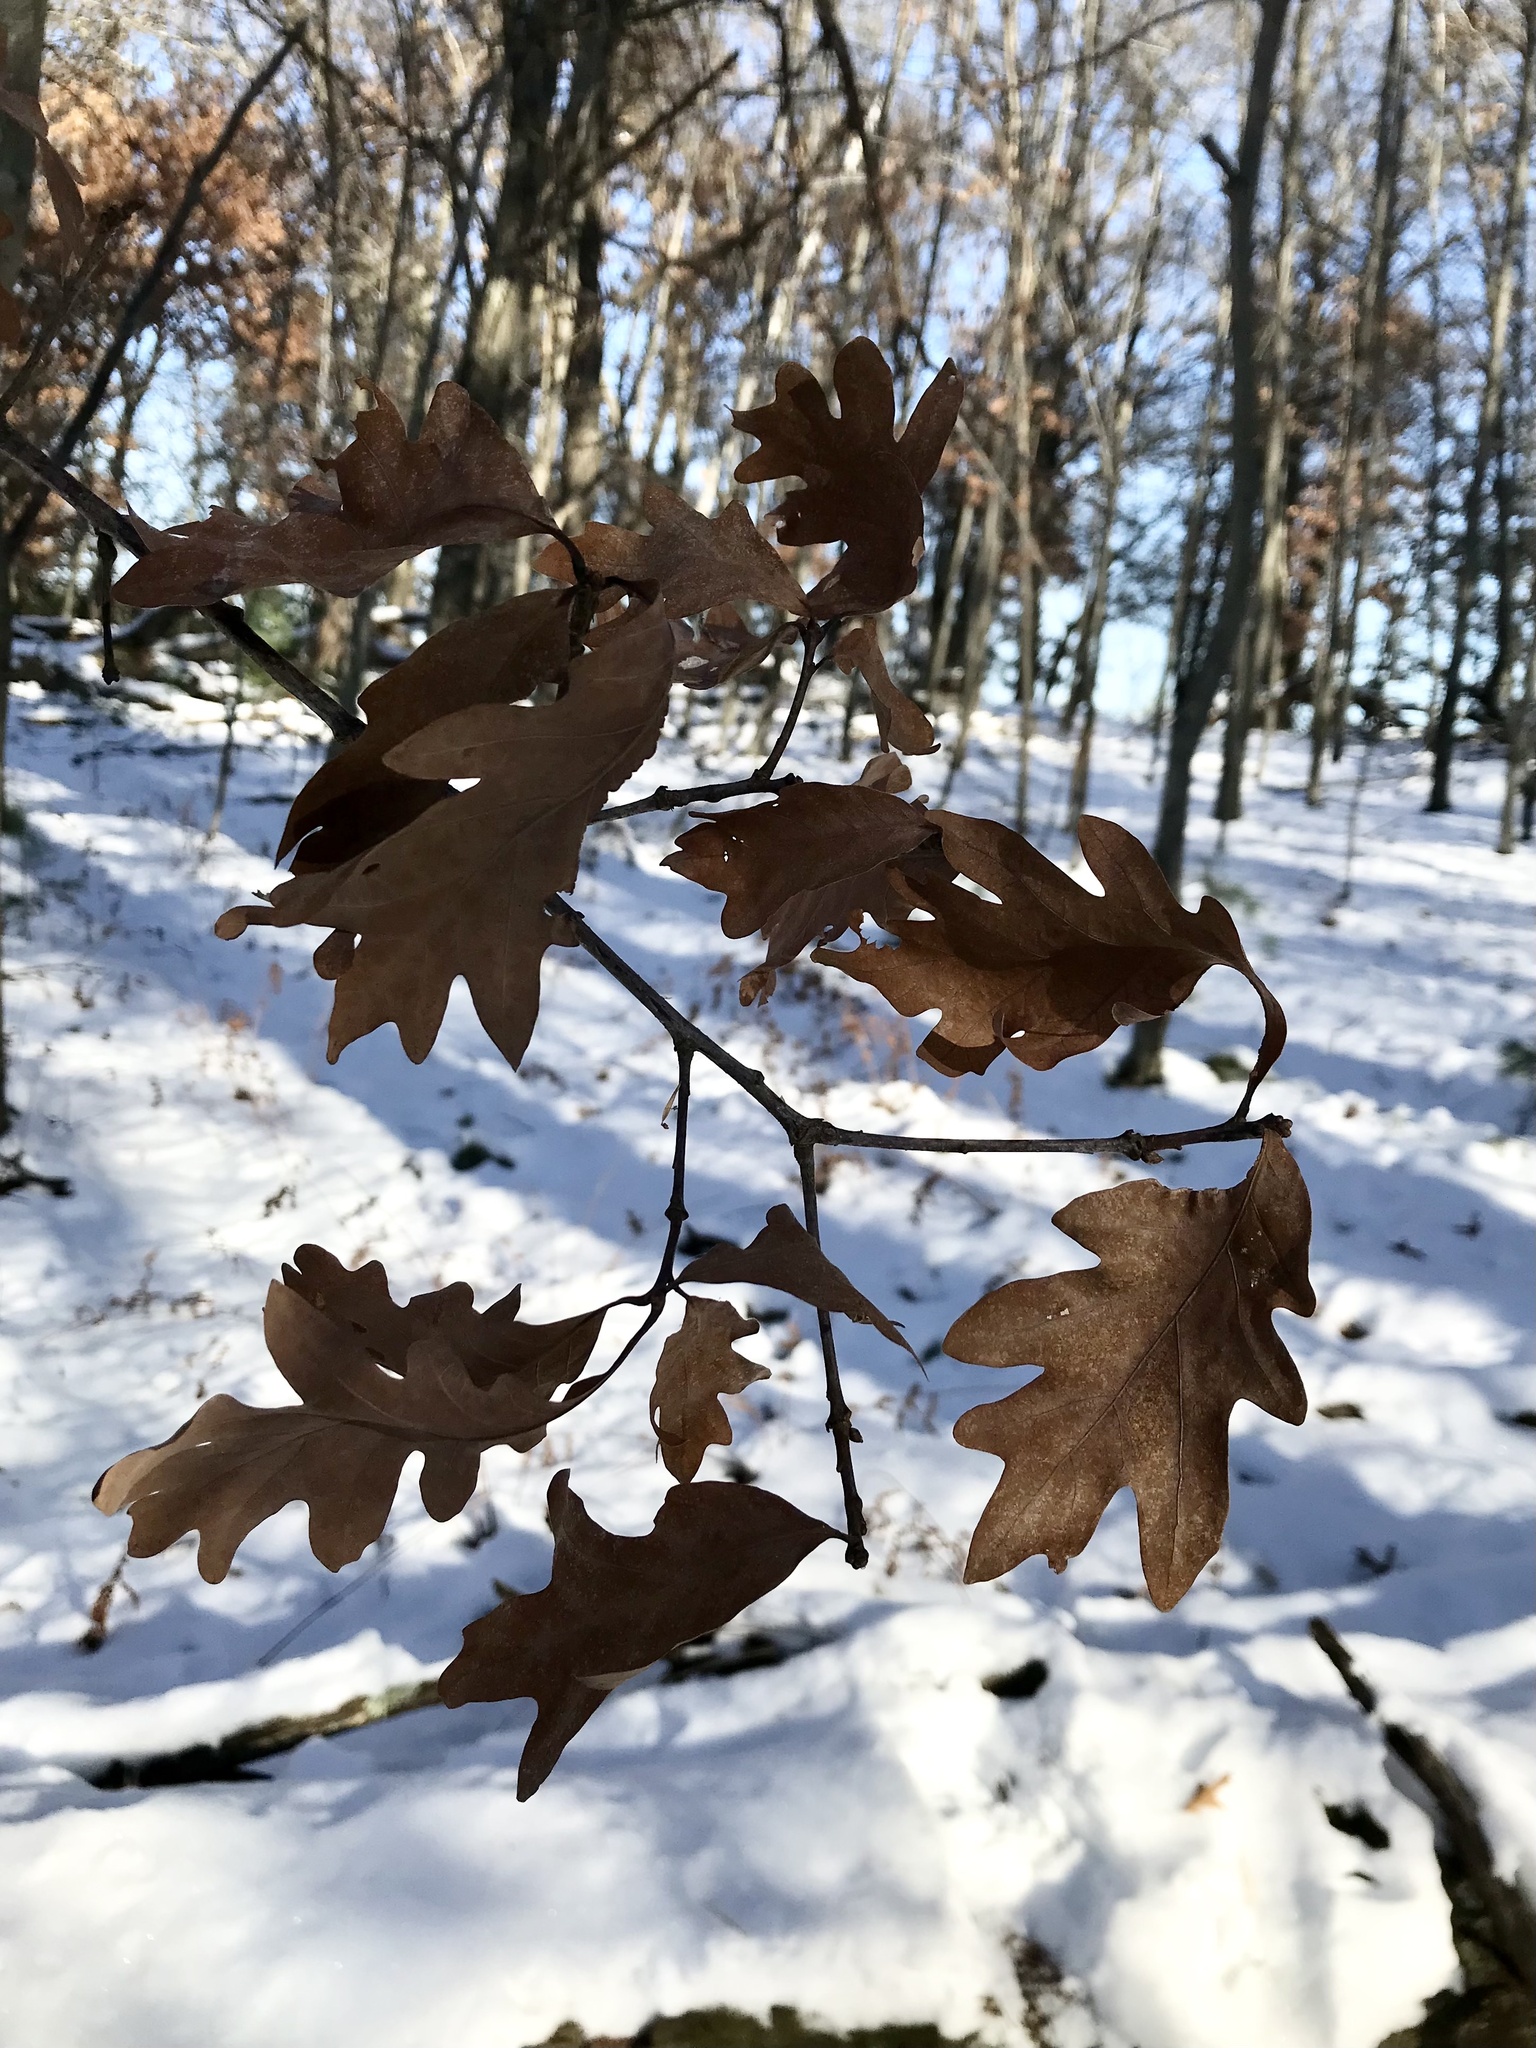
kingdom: Plantae
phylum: Tracheophyta
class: Magnoliopsida
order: Fagales
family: Fagaceae
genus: Quercus
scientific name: Quercus alba
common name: White oak
